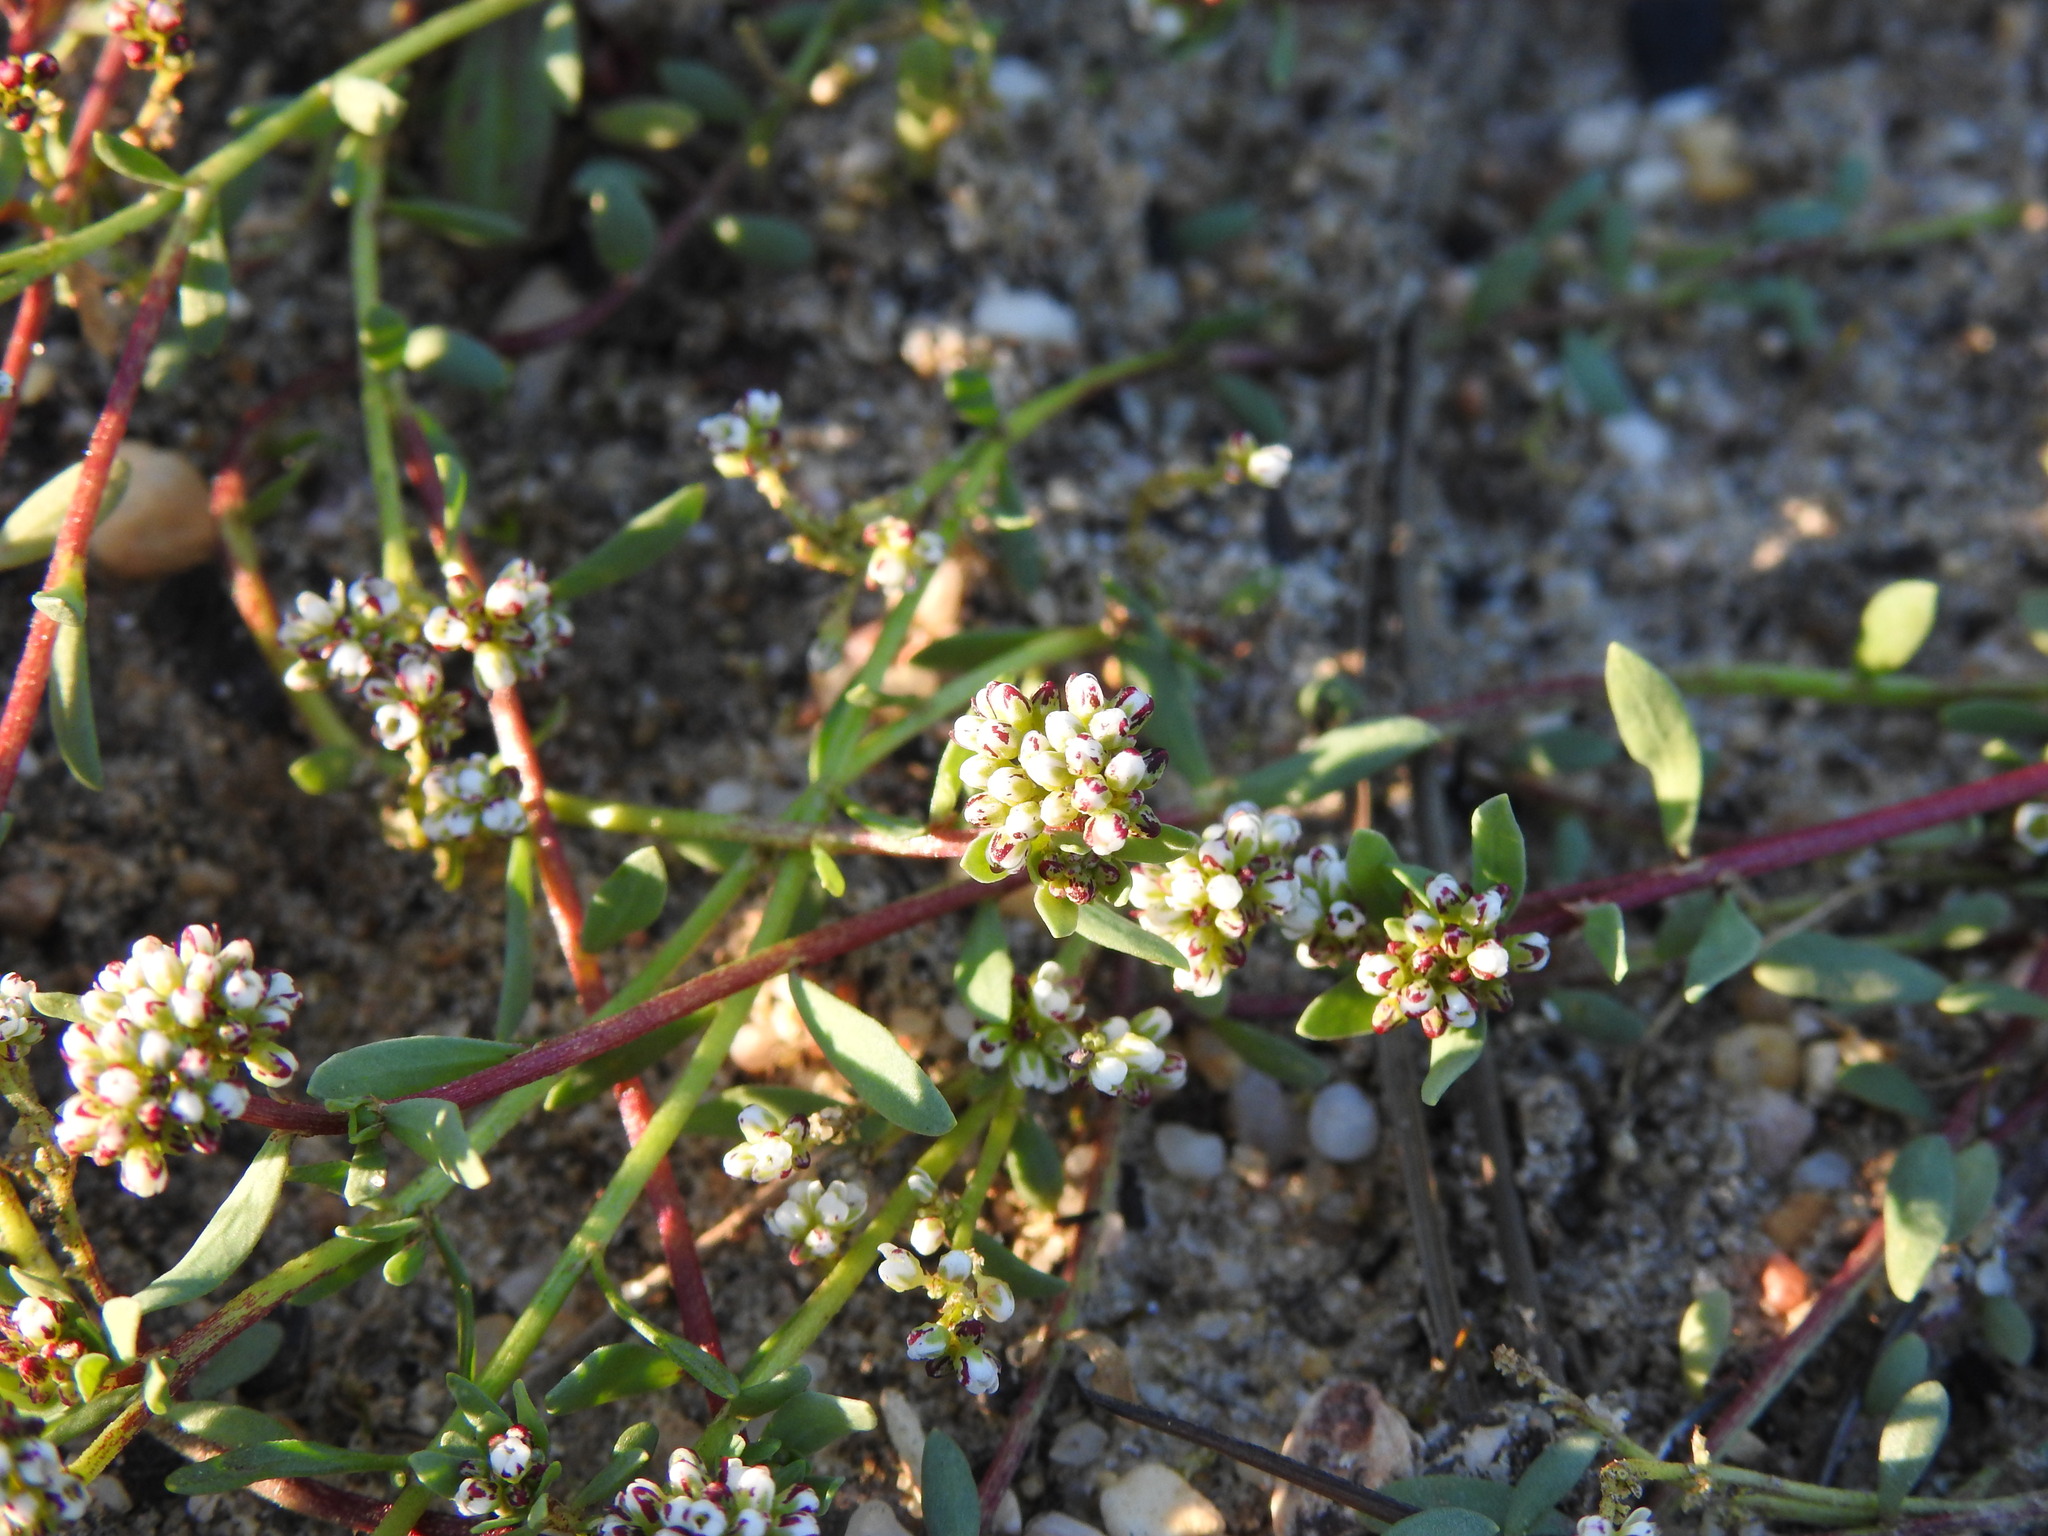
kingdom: Plantae
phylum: Tracheophyta
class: Magnoliopsida
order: Caryophyllales
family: Caryophyllaceae
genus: Corrigiola
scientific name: Corrigiola litoralis
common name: Strapwort
